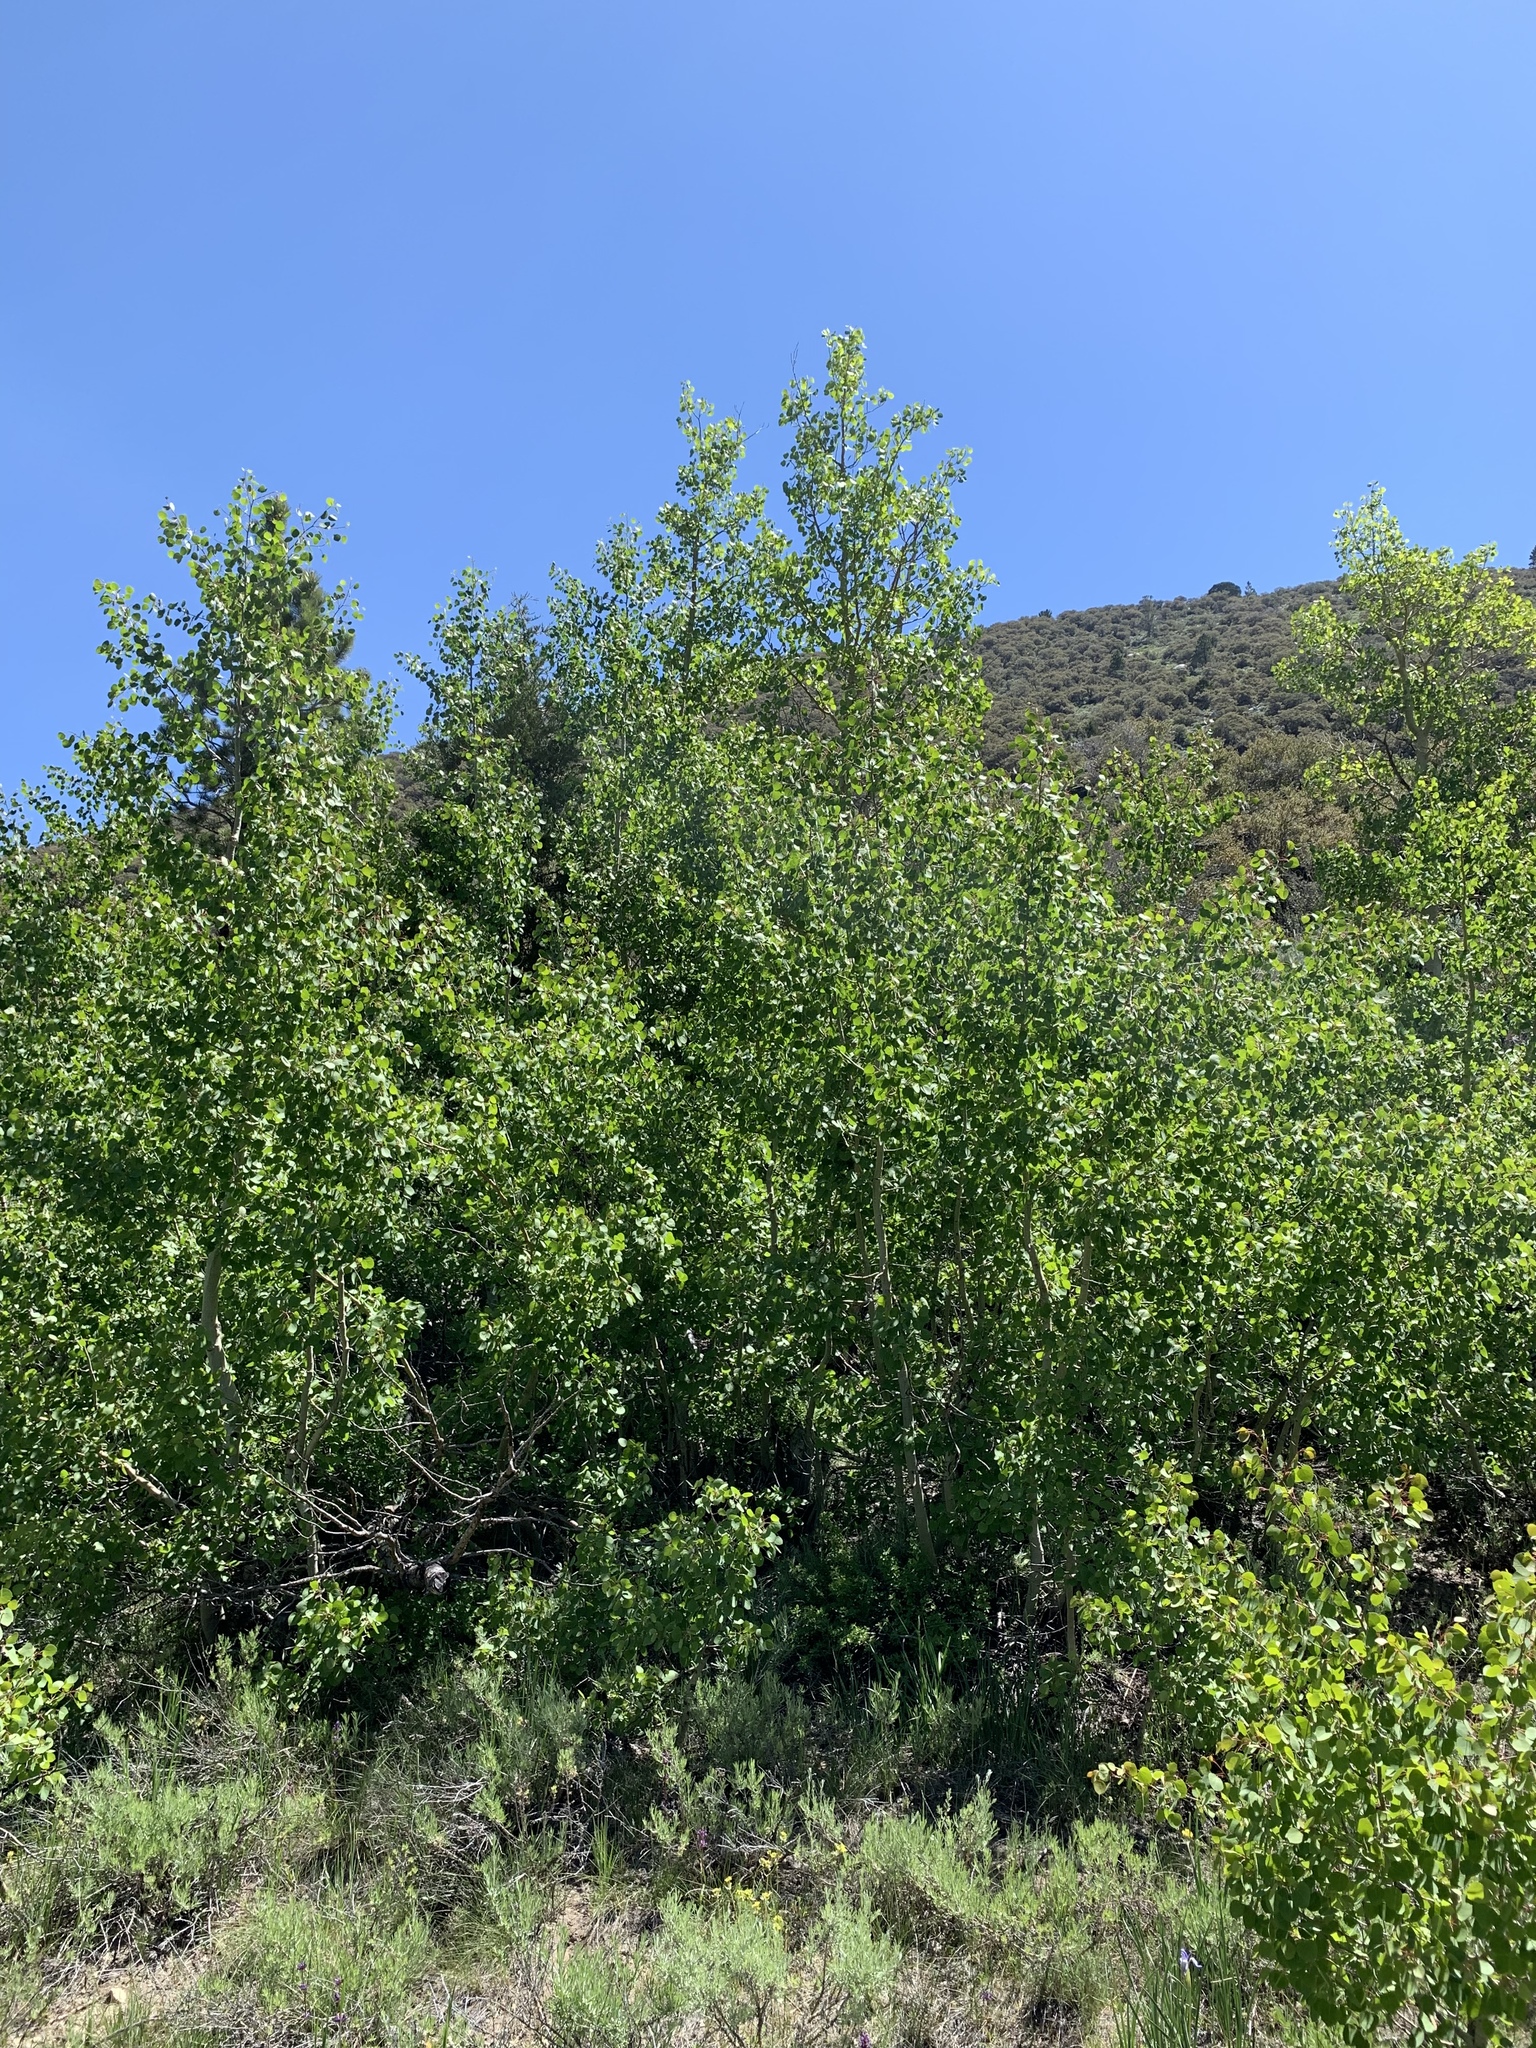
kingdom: Plantae
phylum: Tracheophyta
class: Magnoliopsida
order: Malpighiales
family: Salicaceae
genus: Populus
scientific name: Populus tremuloides
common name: Quaking aspen
